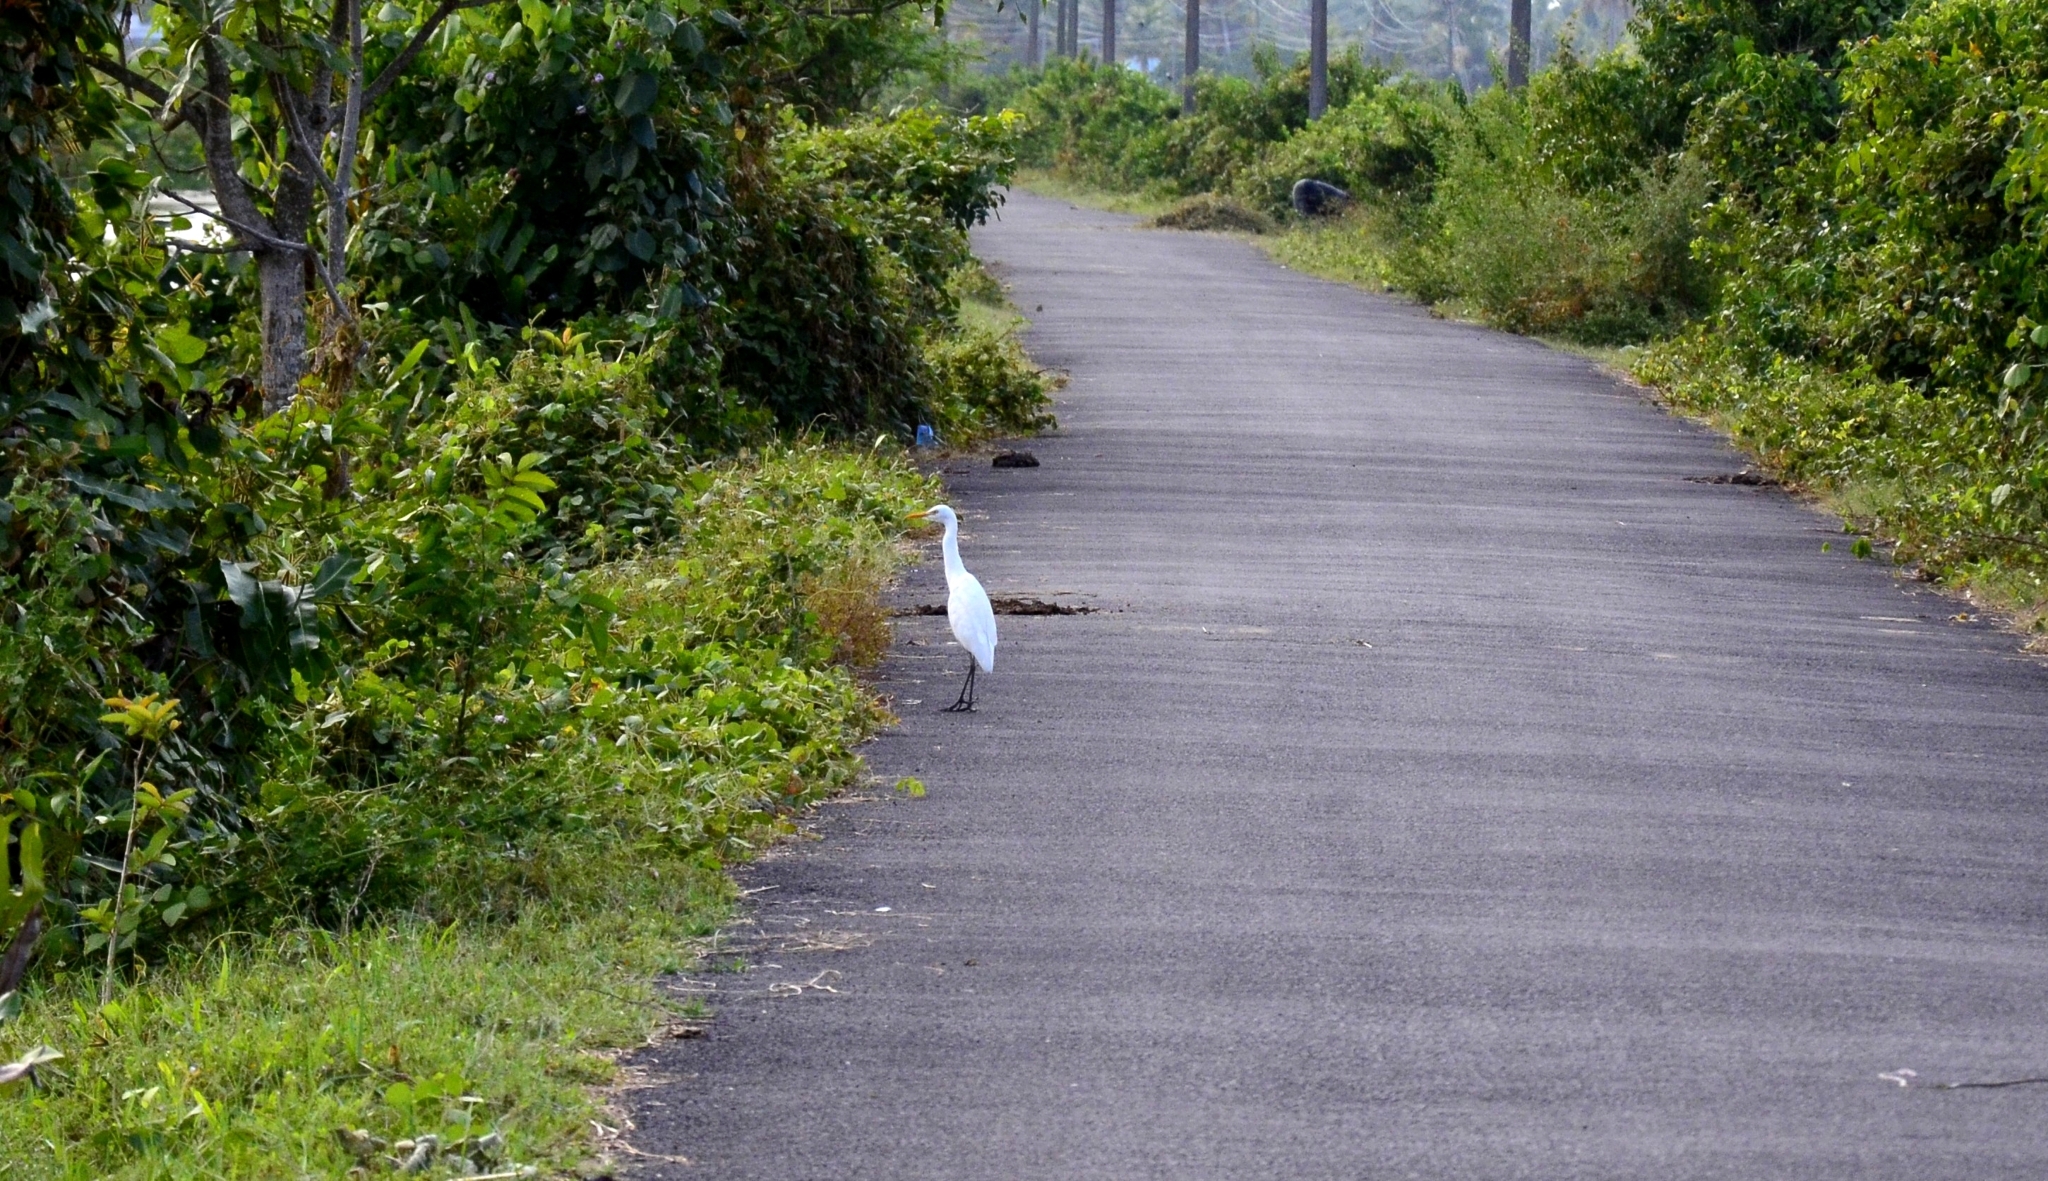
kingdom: Animalia
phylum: Chordata
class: Aves
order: Pelecaniformes
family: Ardeidae
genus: Bubulcus
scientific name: Bubulcus coromandus
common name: Eastern cattle egret
